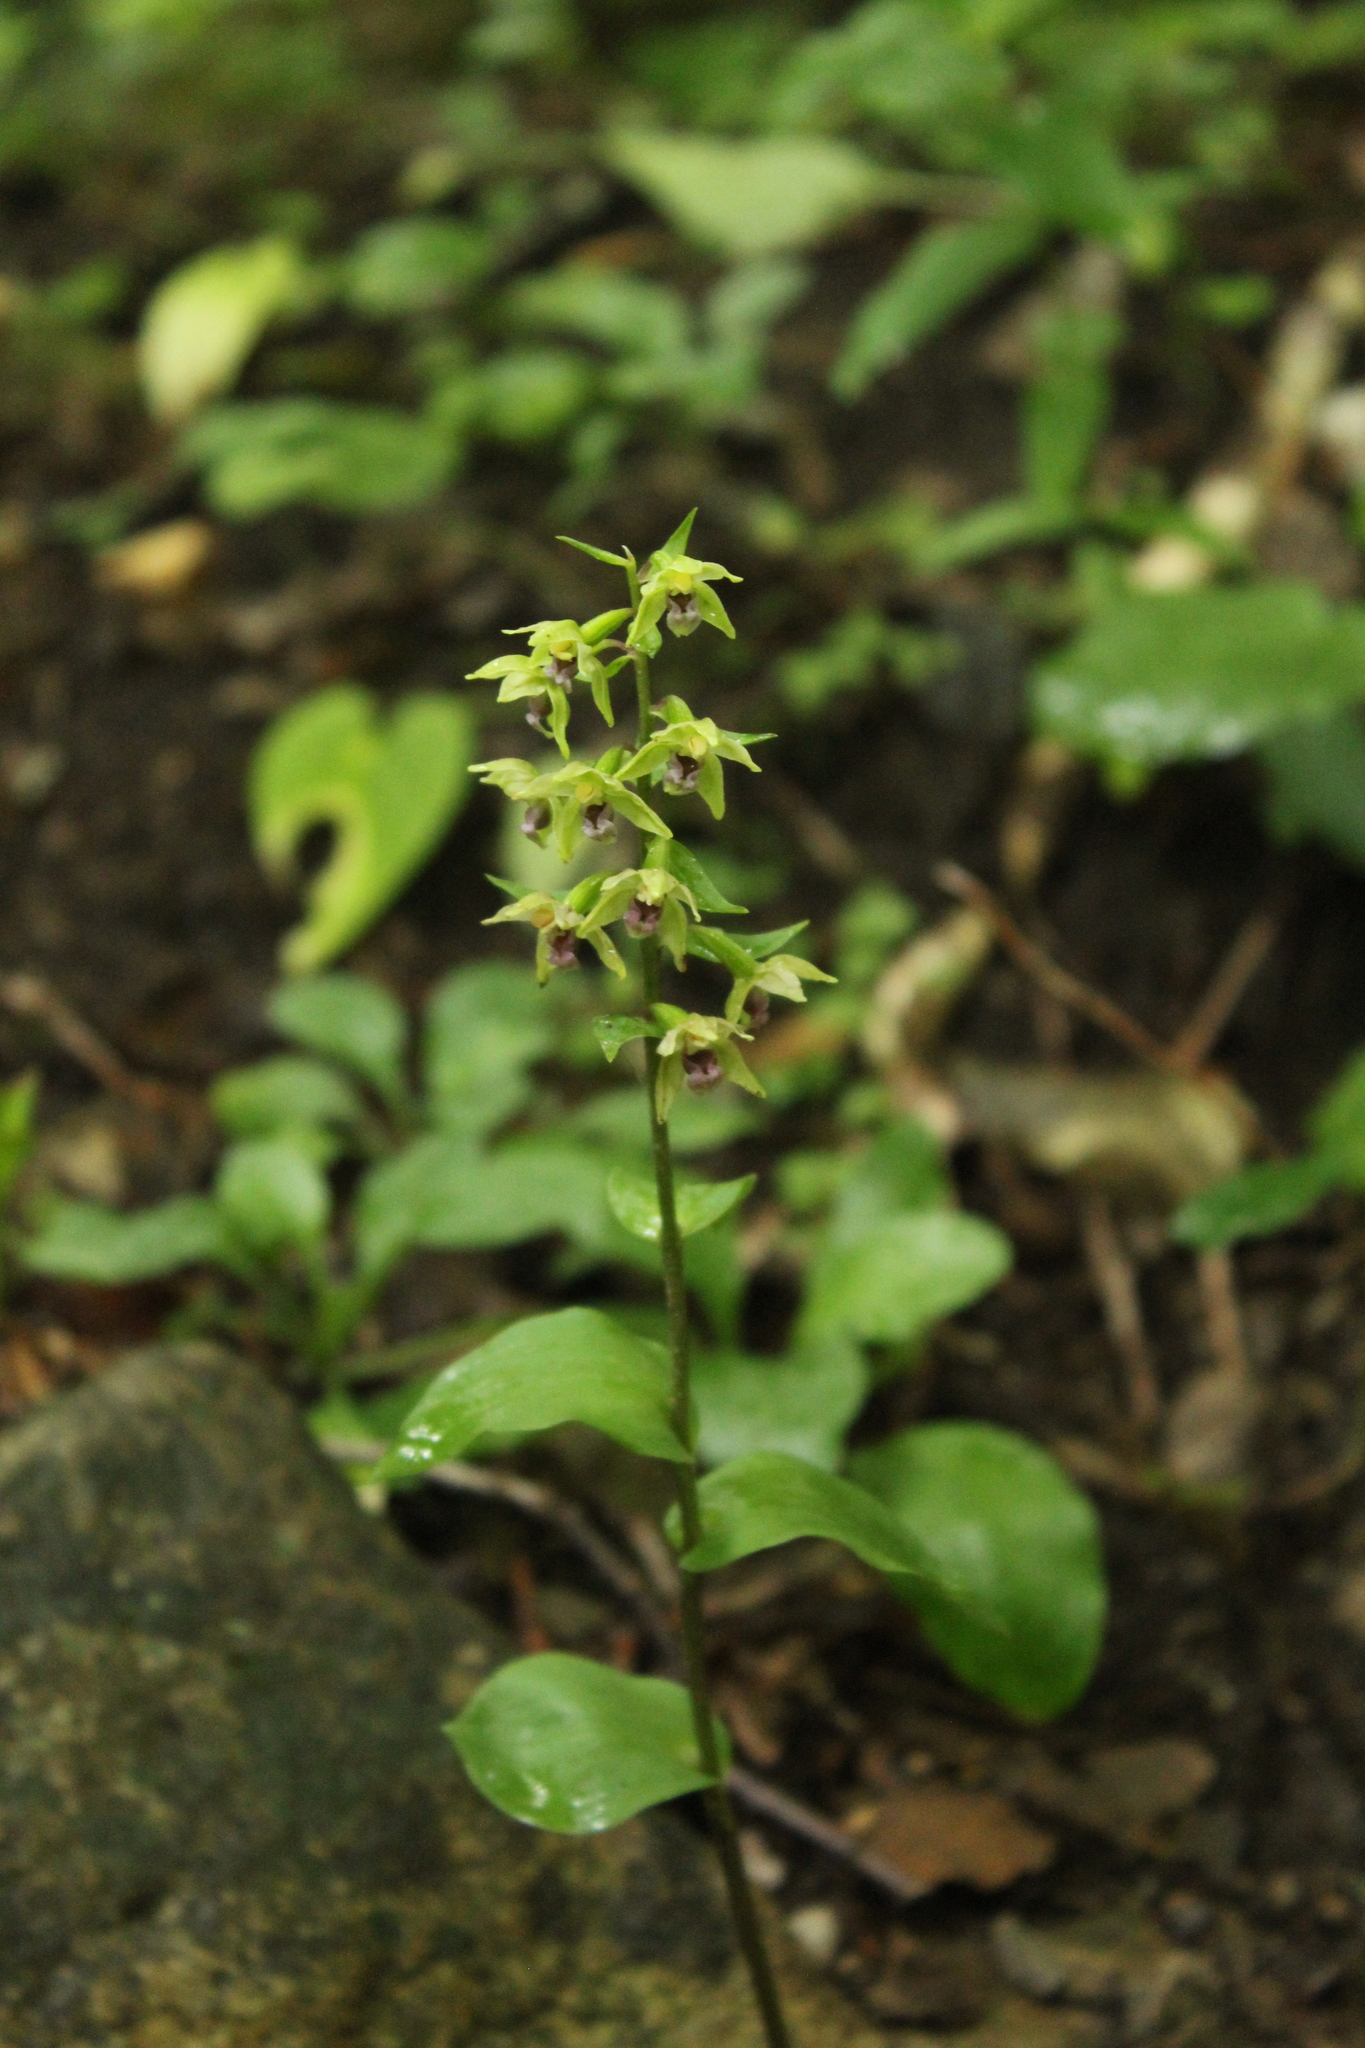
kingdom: Plantae
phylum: Tracheophyta
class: Liliopsida
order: Asparagales
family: Orchidaceae
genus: Epipactis
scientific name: Epipactis
